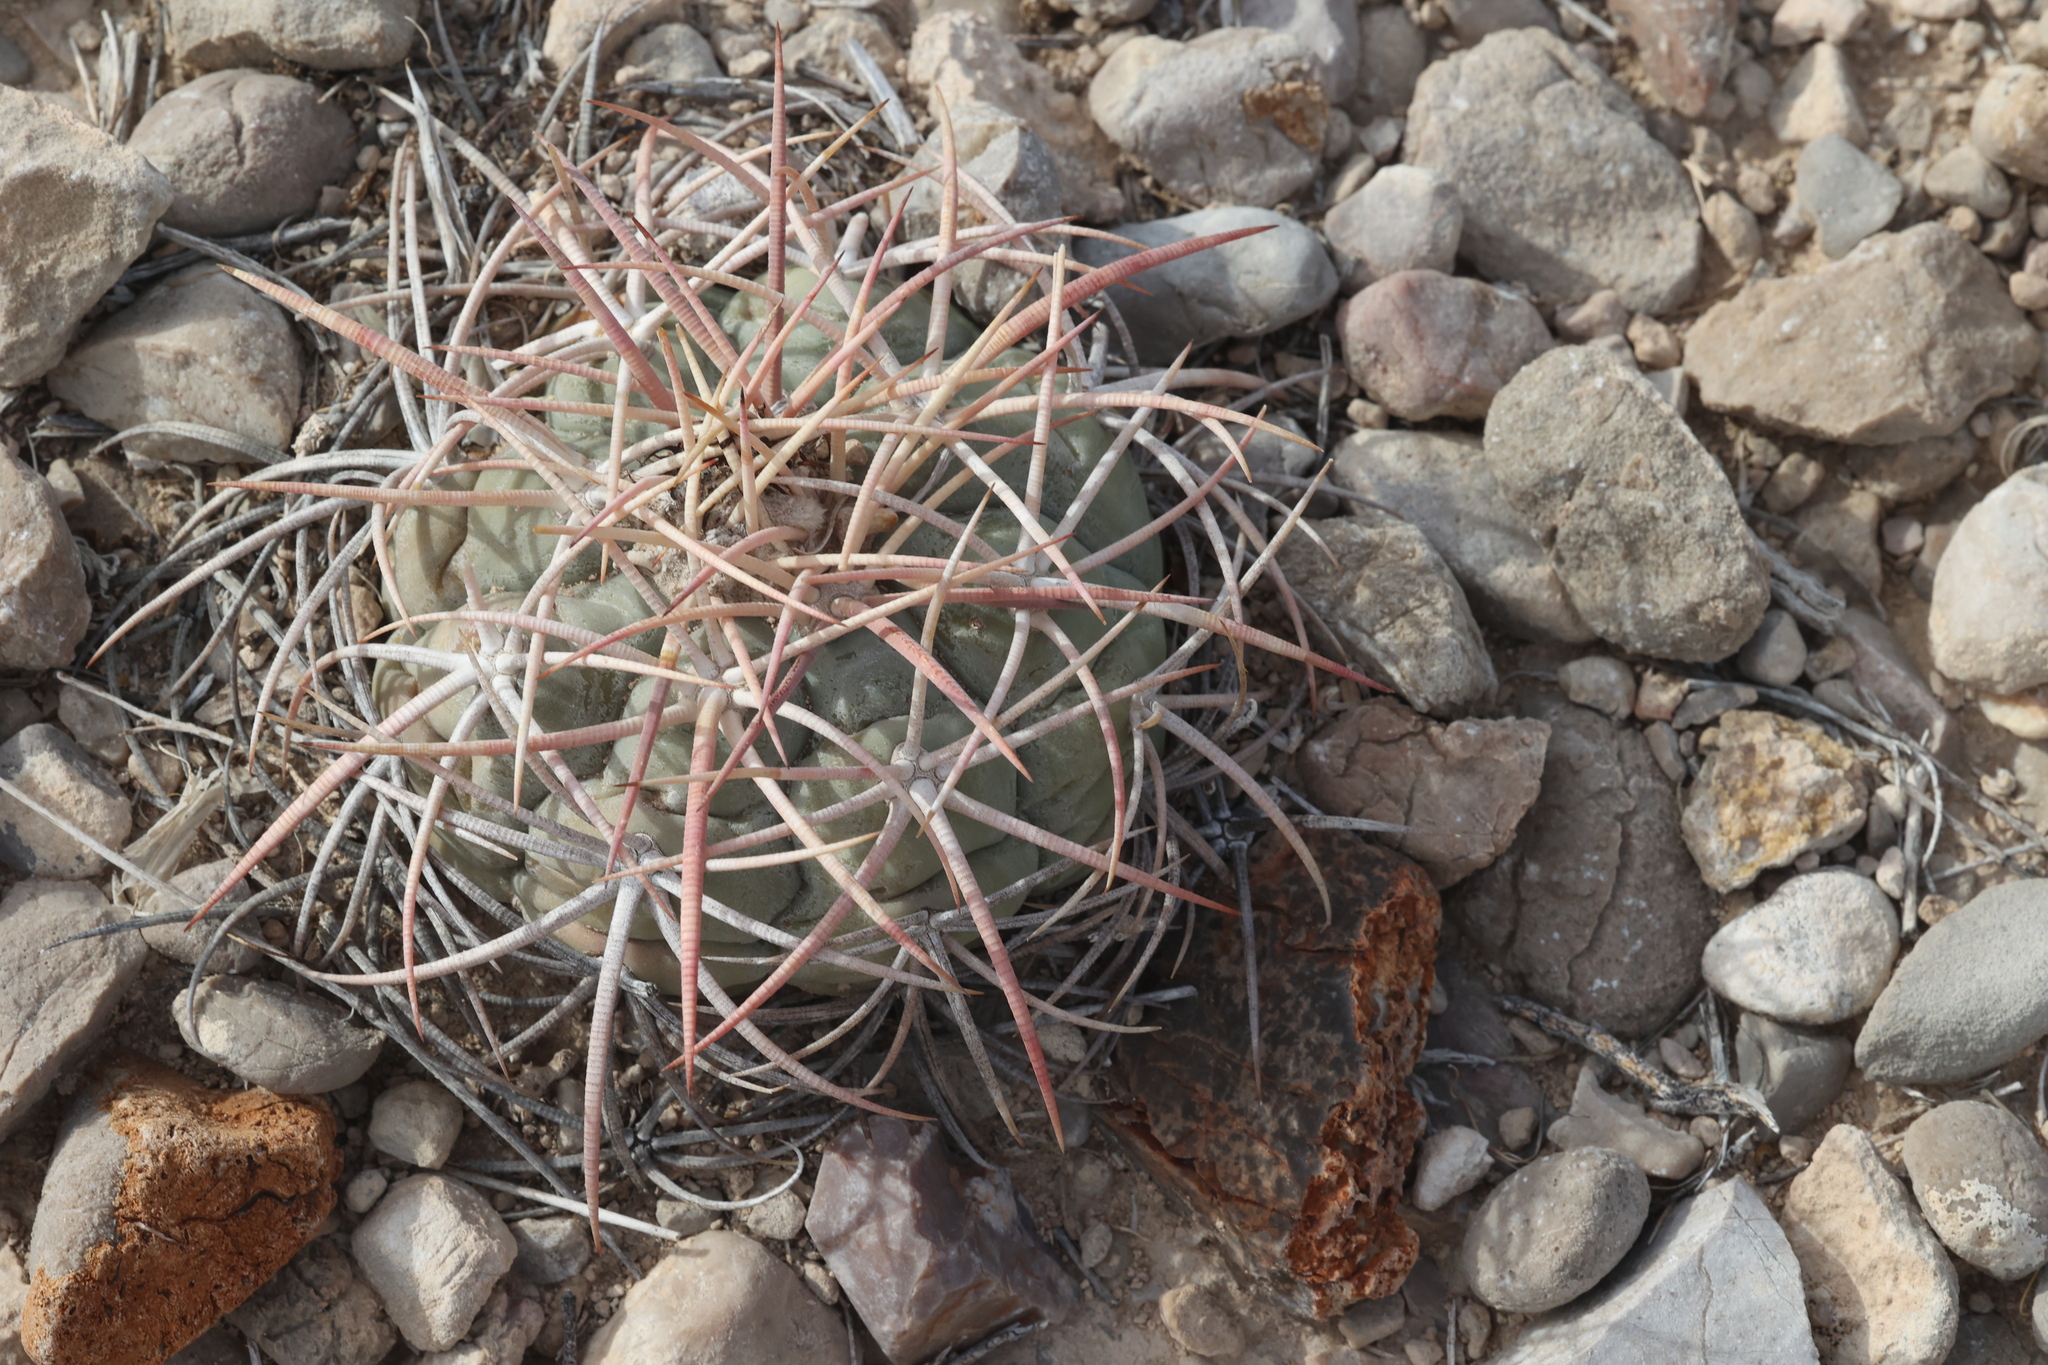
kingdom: Plantae
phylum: Tracheophyta
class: Magnoliopsida
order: Caryophyllales
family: Cactaceae
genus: Echinocactus
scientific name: Echinocactus horizonthalonius
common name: Devilshead
